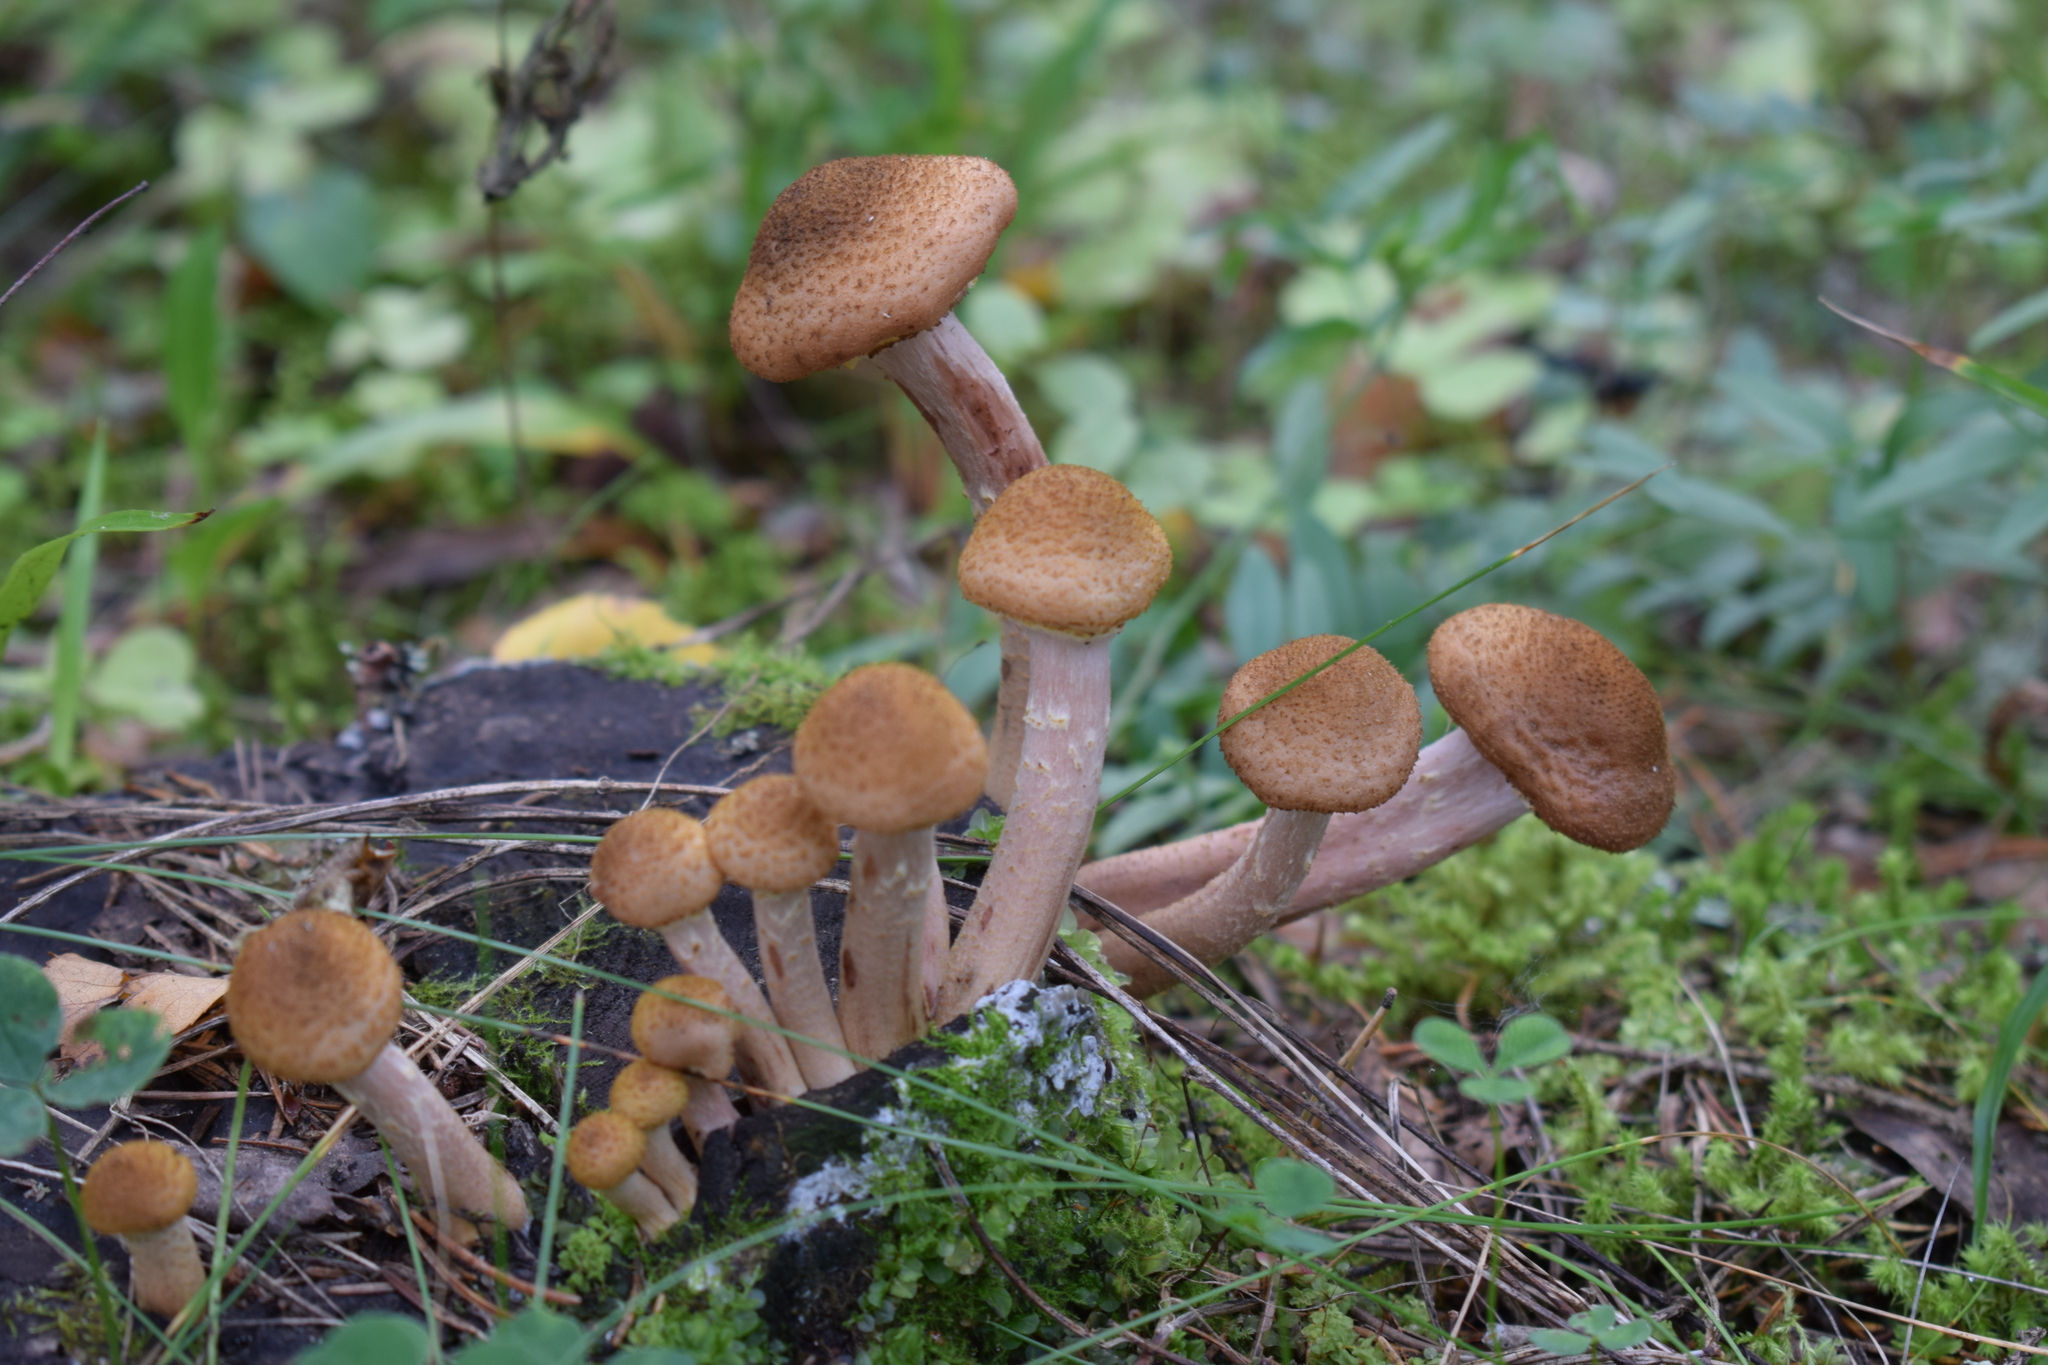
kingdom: Fungi
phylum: Basidiomycota
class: Agaricomycetes
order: Agaricales
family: Physalacriaceae
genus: Armillaria
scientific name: Armillaria borealis
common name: Northern honey fungus
